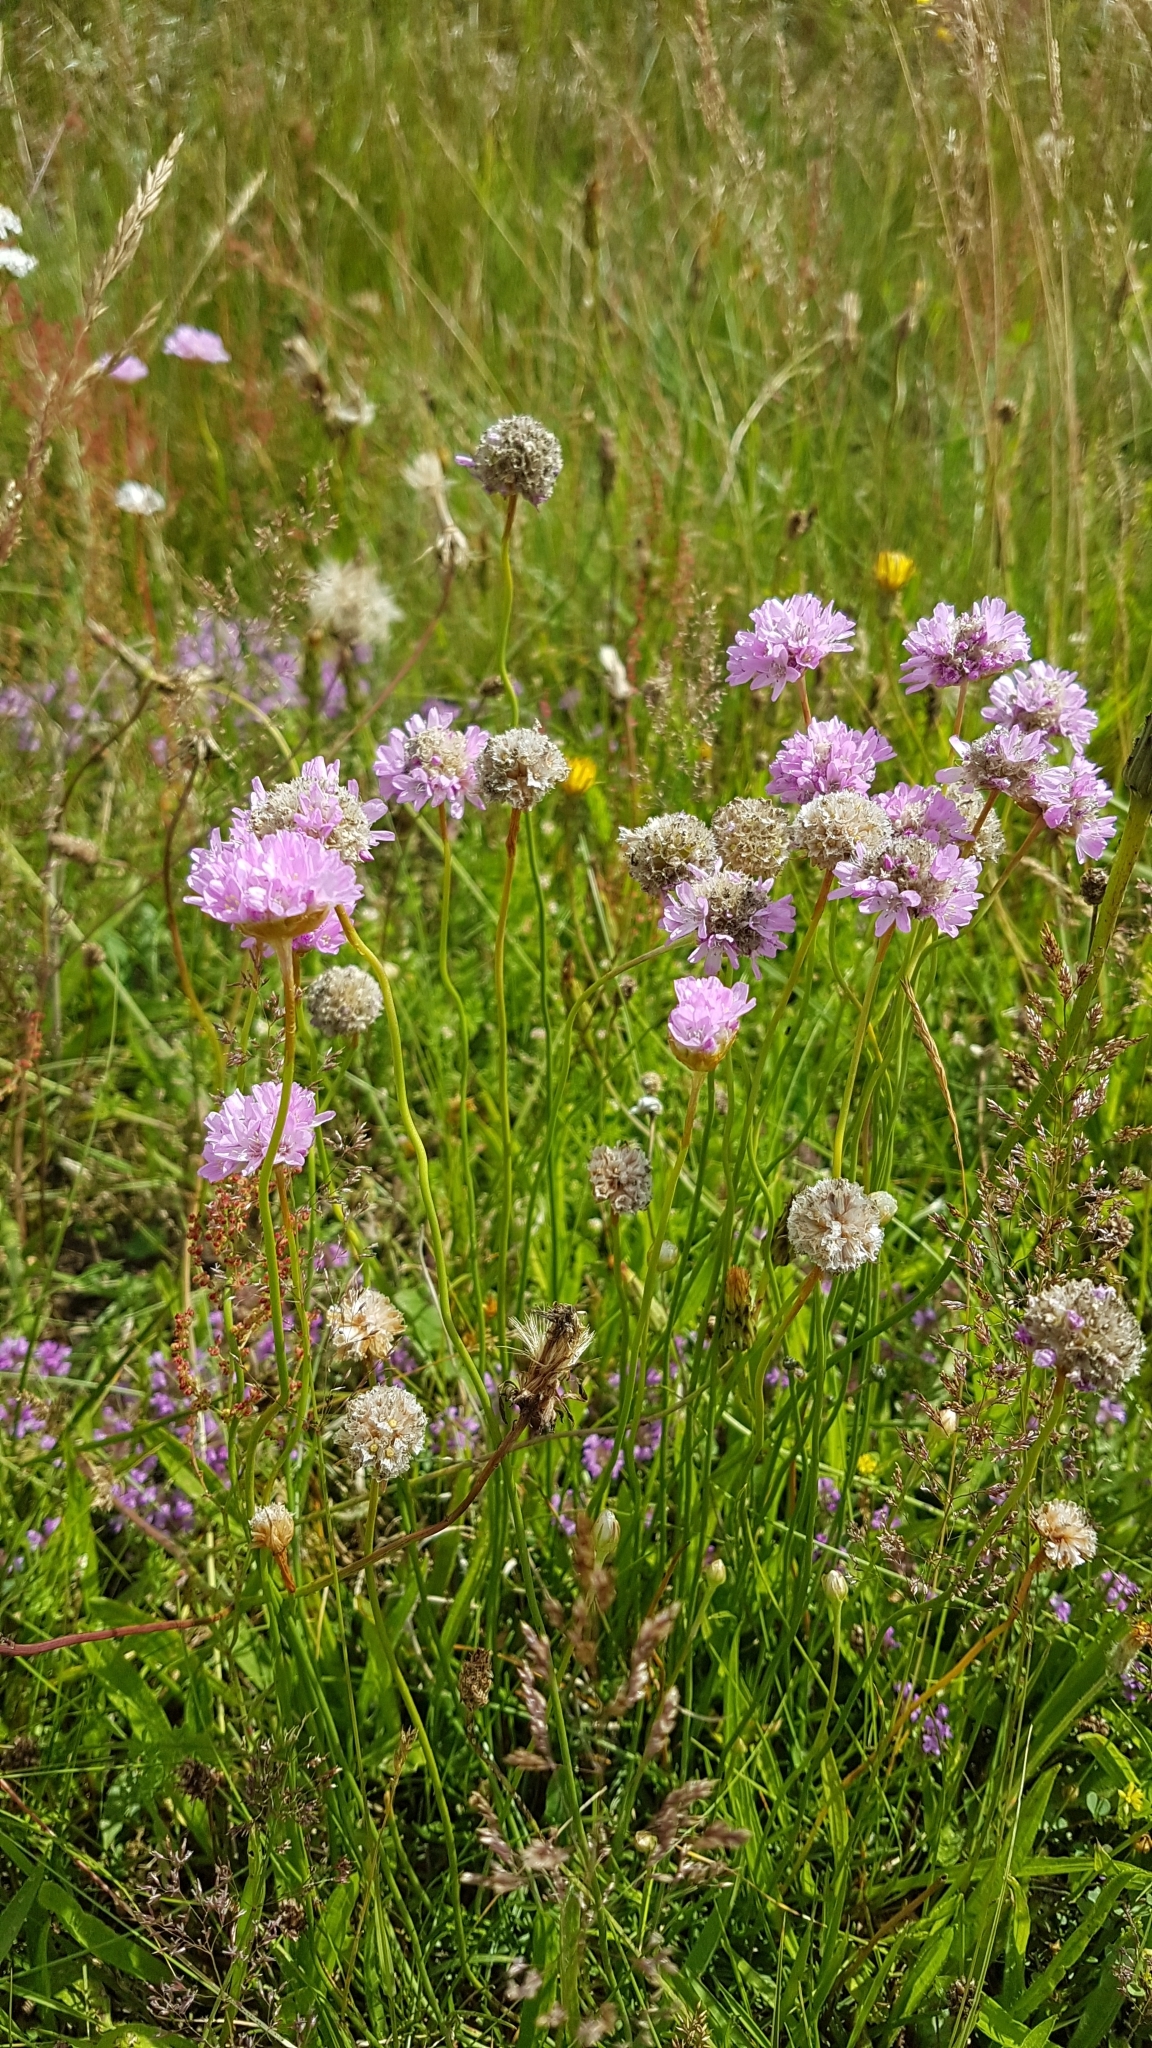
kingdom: Plantae
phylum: Tracheophyta
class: Magnoliopsida
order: Caryophyllales
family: Plumbaginaceae
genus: Armeria
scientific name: Armeria maritima
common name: Thrift
